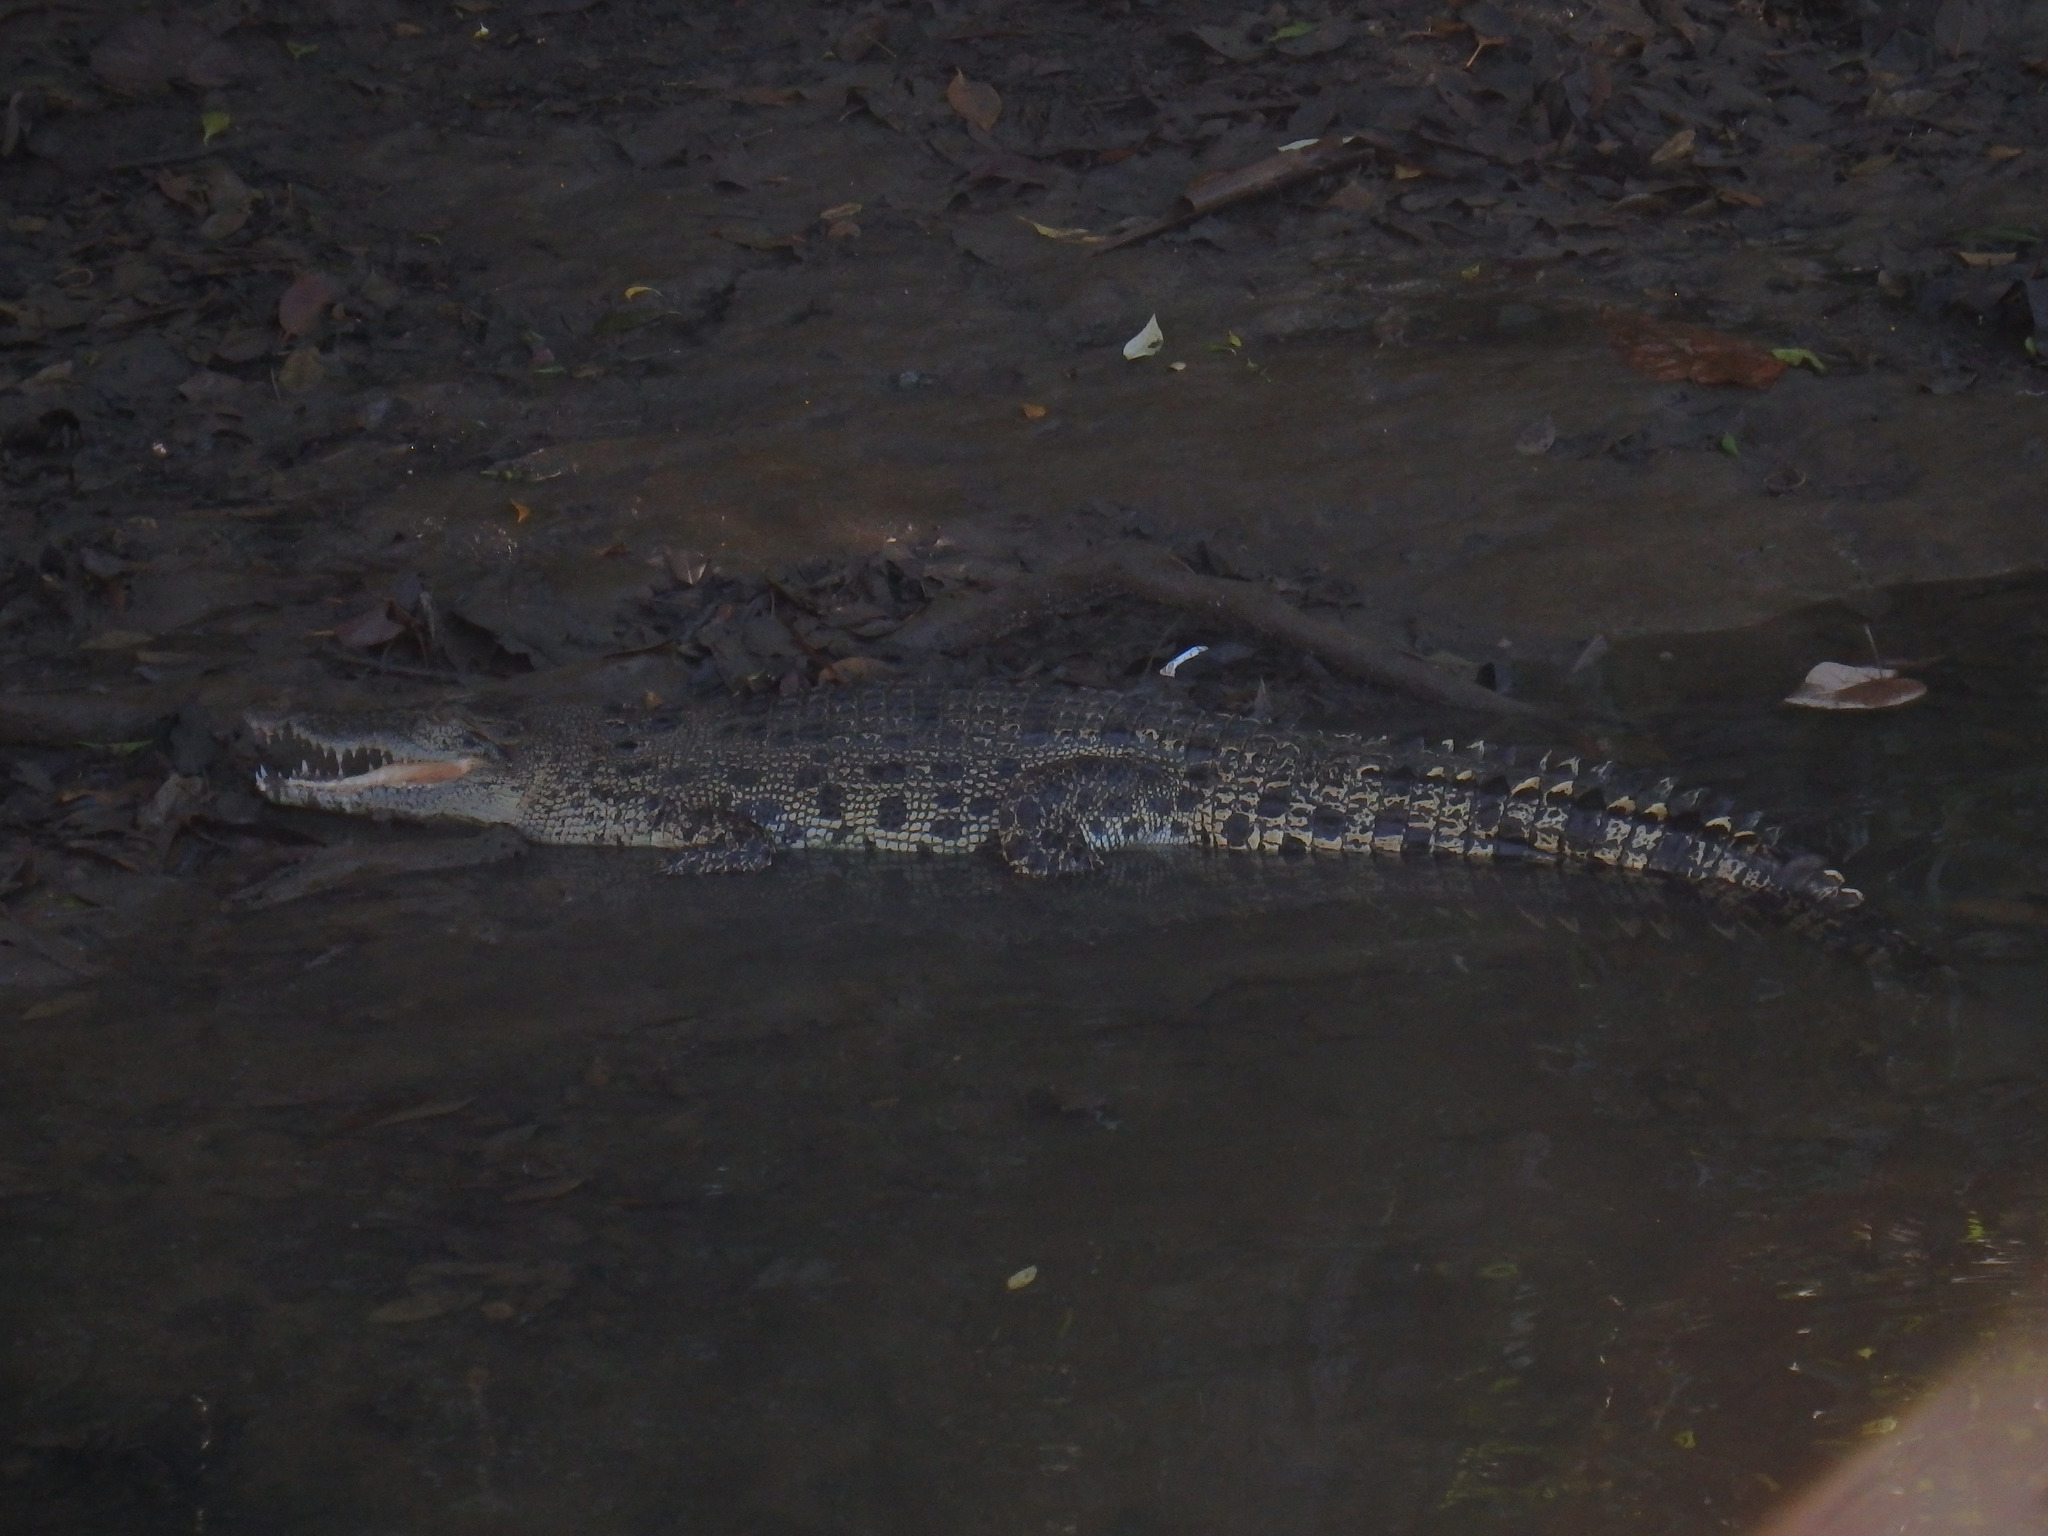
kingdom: Animalia
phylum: Chordata
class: Crocodylia
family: Crocodylidae
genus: Crocodylus
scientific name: Crocodylus porosus
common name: Saltwater crocodile
